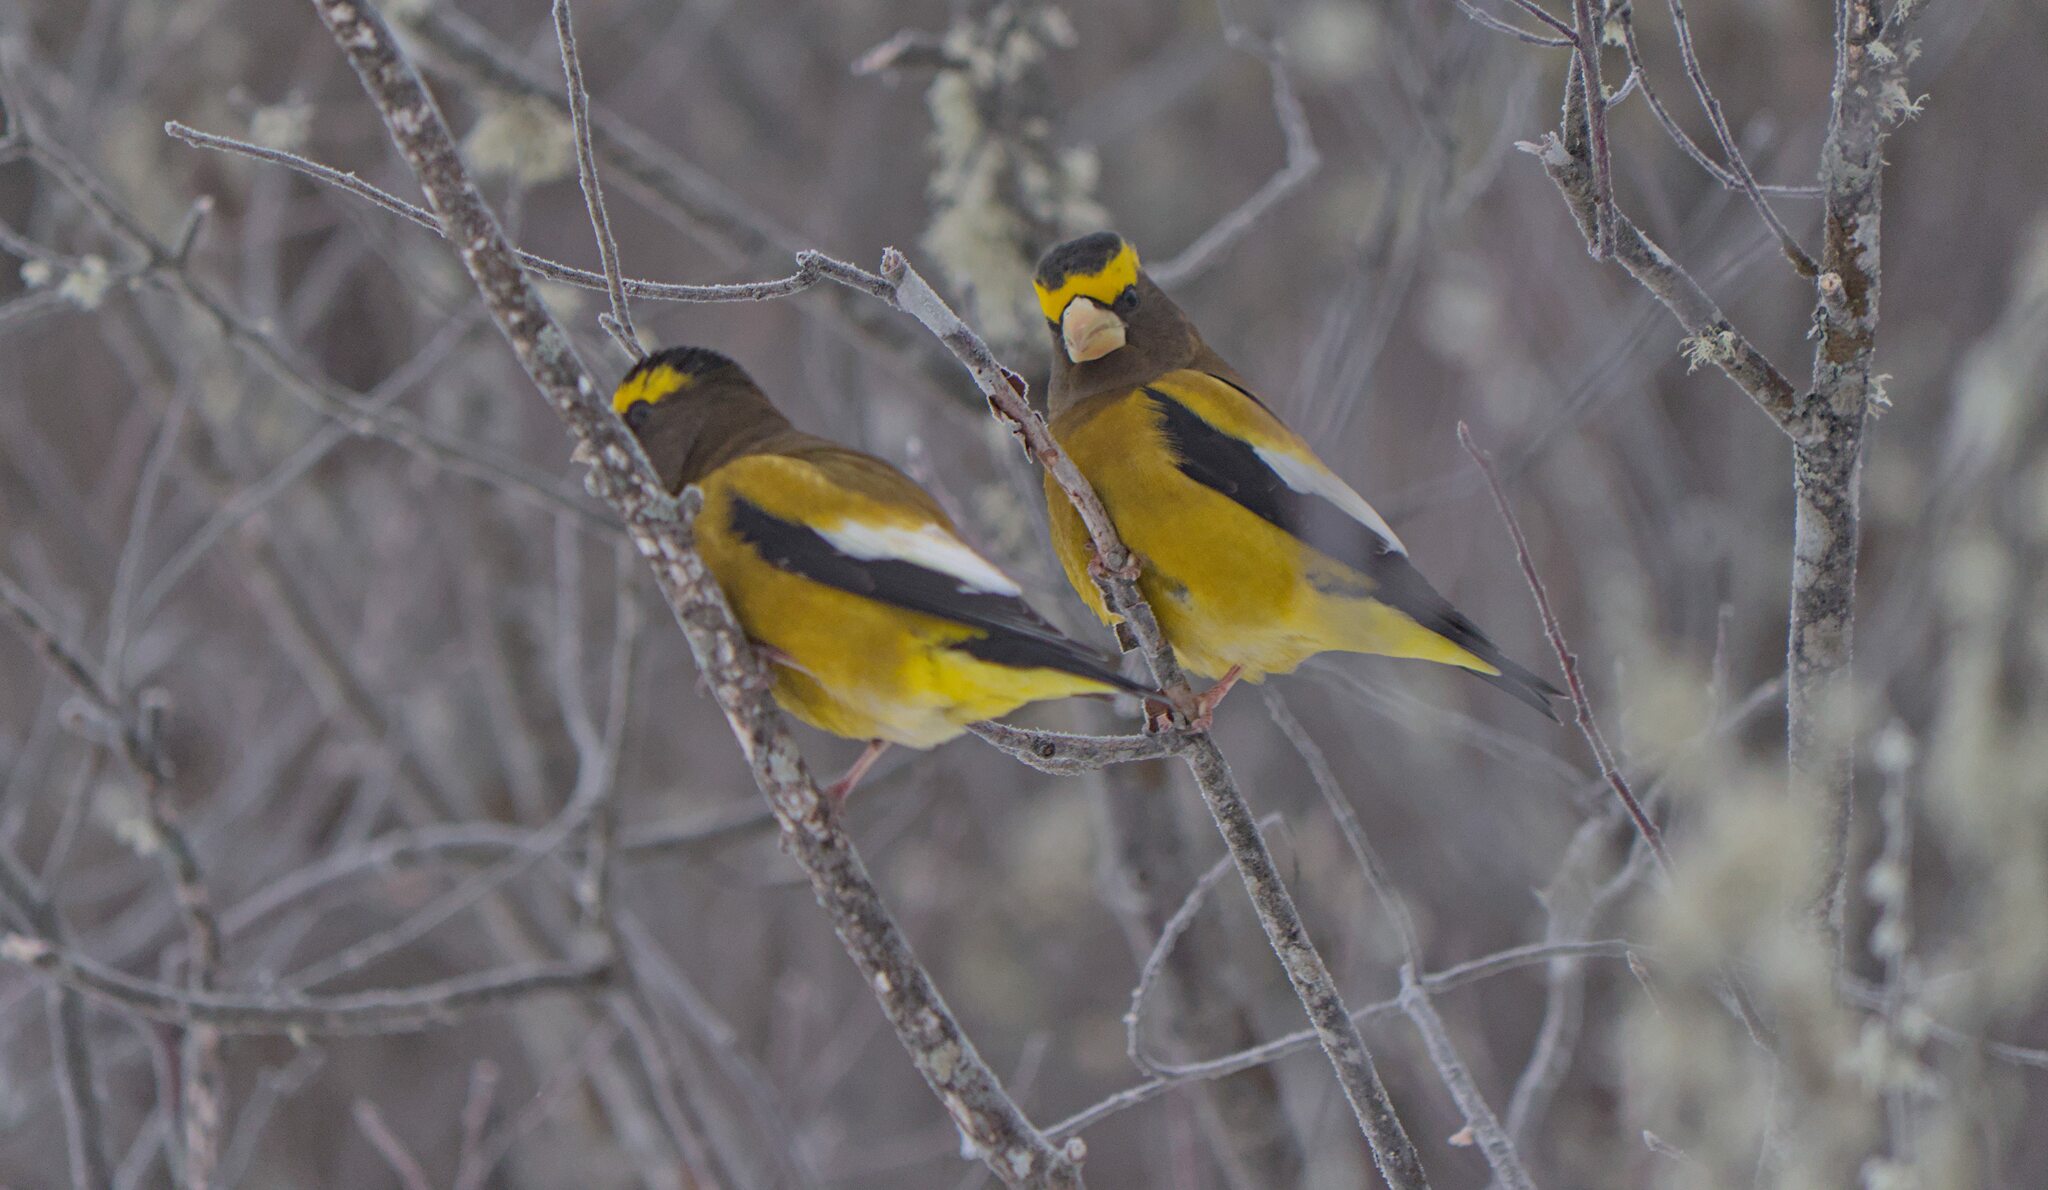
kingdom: Animalia
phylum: Chordata
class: Aves
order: Passeriformes
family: Fringillidae
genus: Hesperiphona
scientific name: Hesperiphona vespertina
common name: Evening grosbeak
